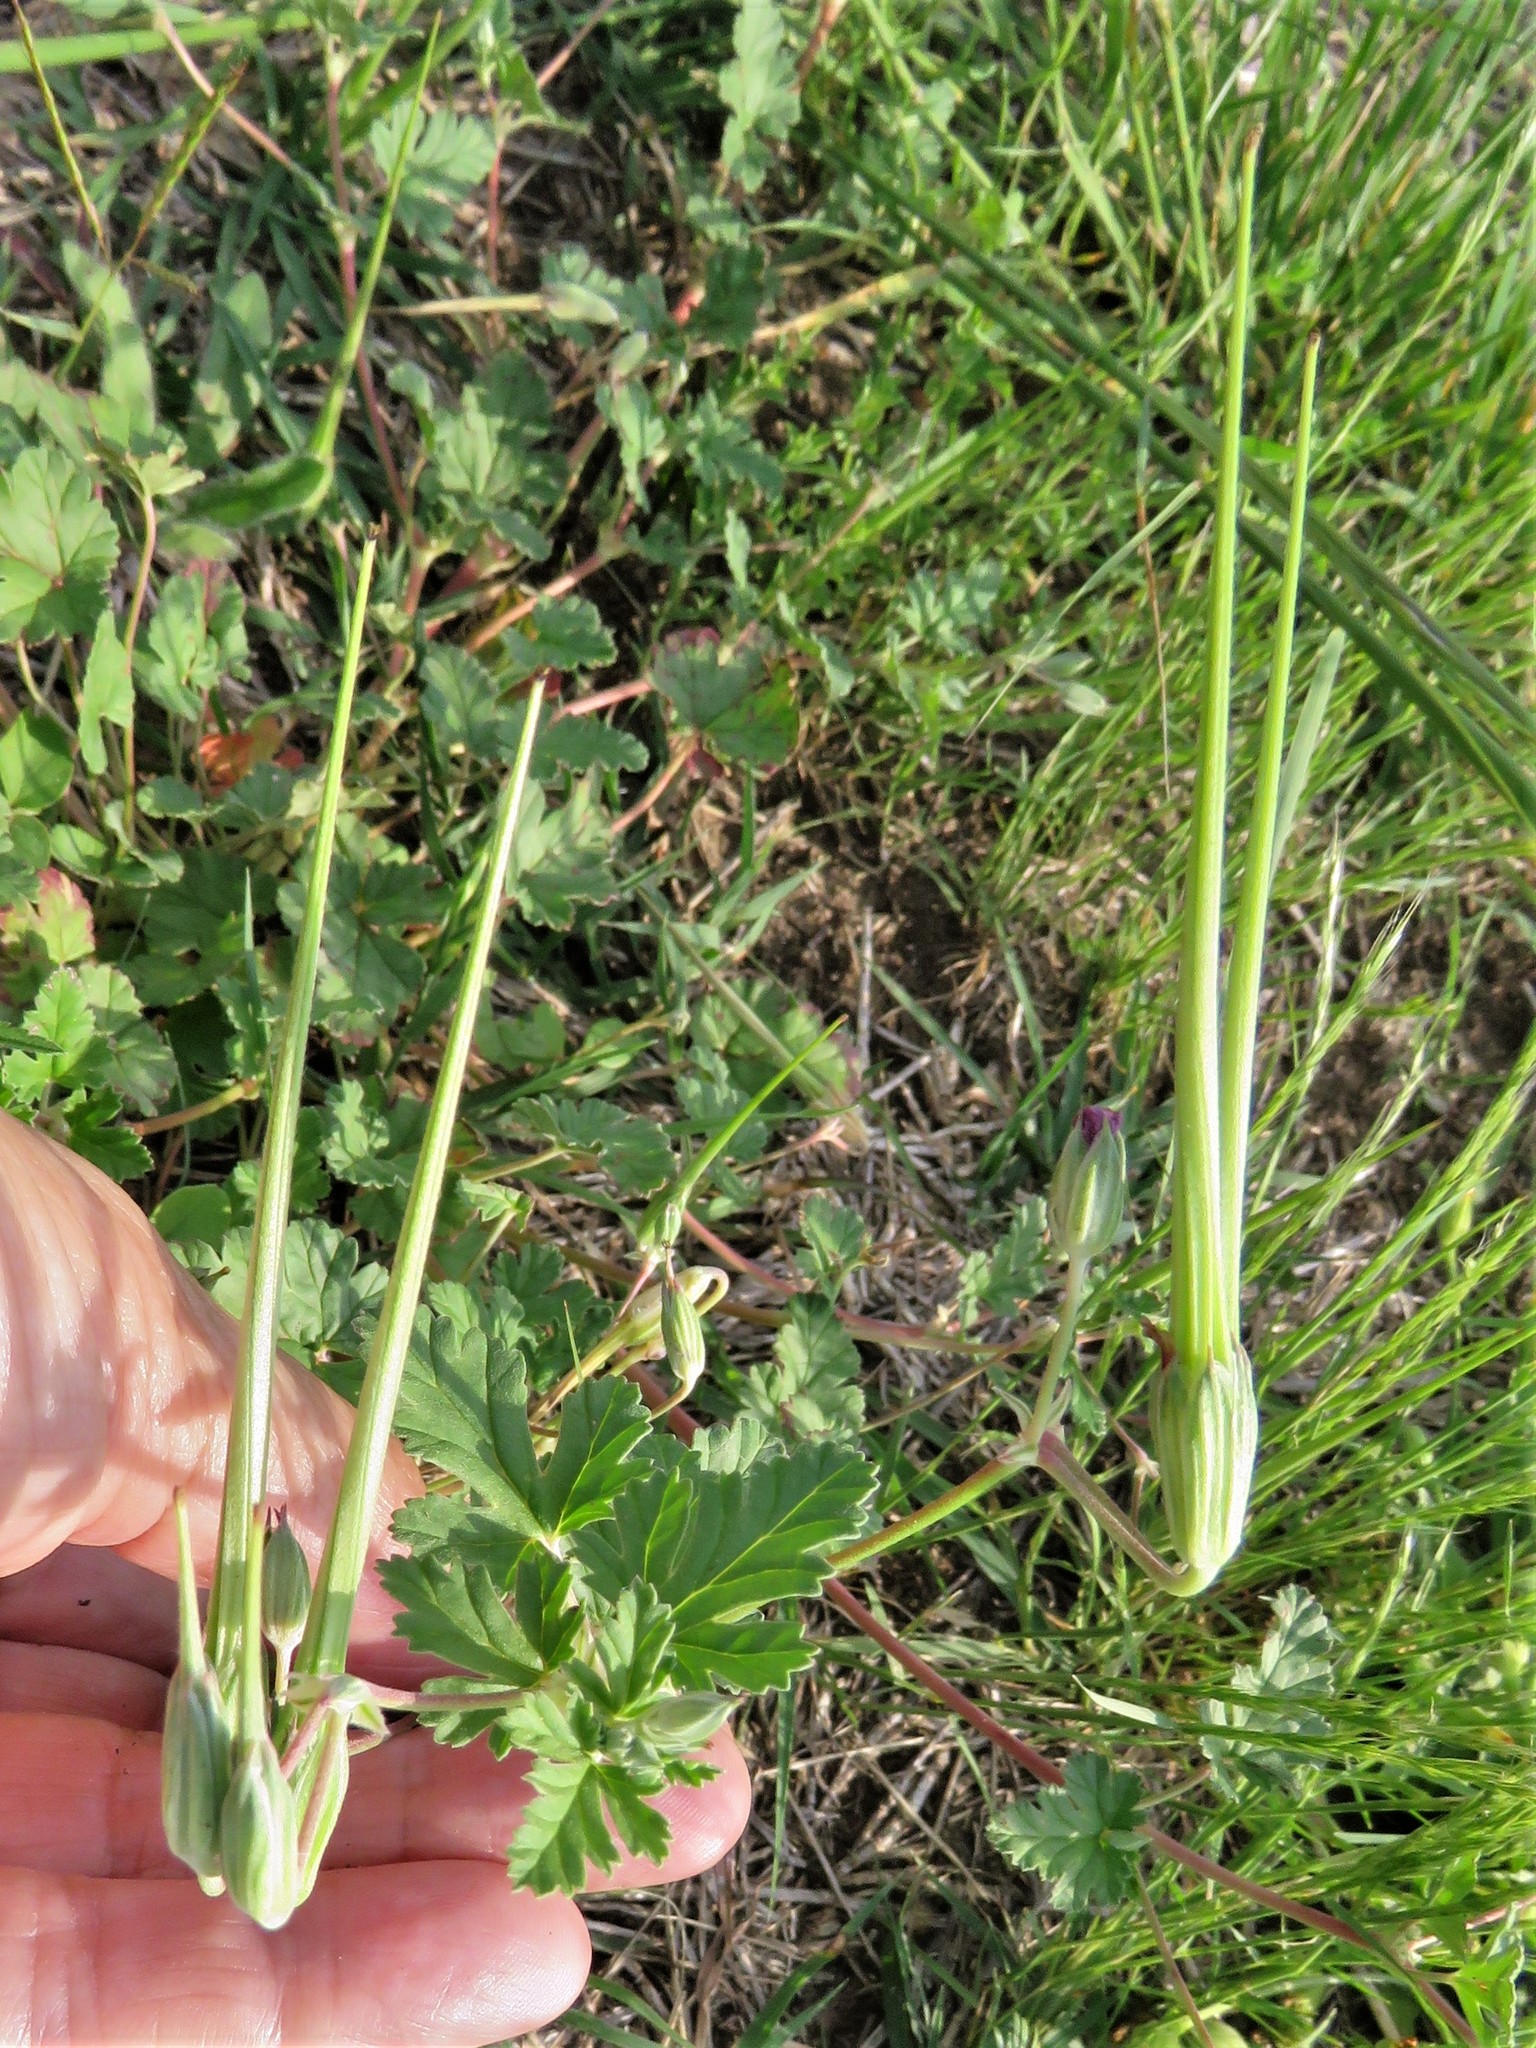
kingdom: Plantae
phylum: Tracheophyta
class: Magnoliopsida
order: Geraniales
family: Geraniaceae
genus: Erodium
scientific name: Erodium texanum
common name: Texas stork's-bill
